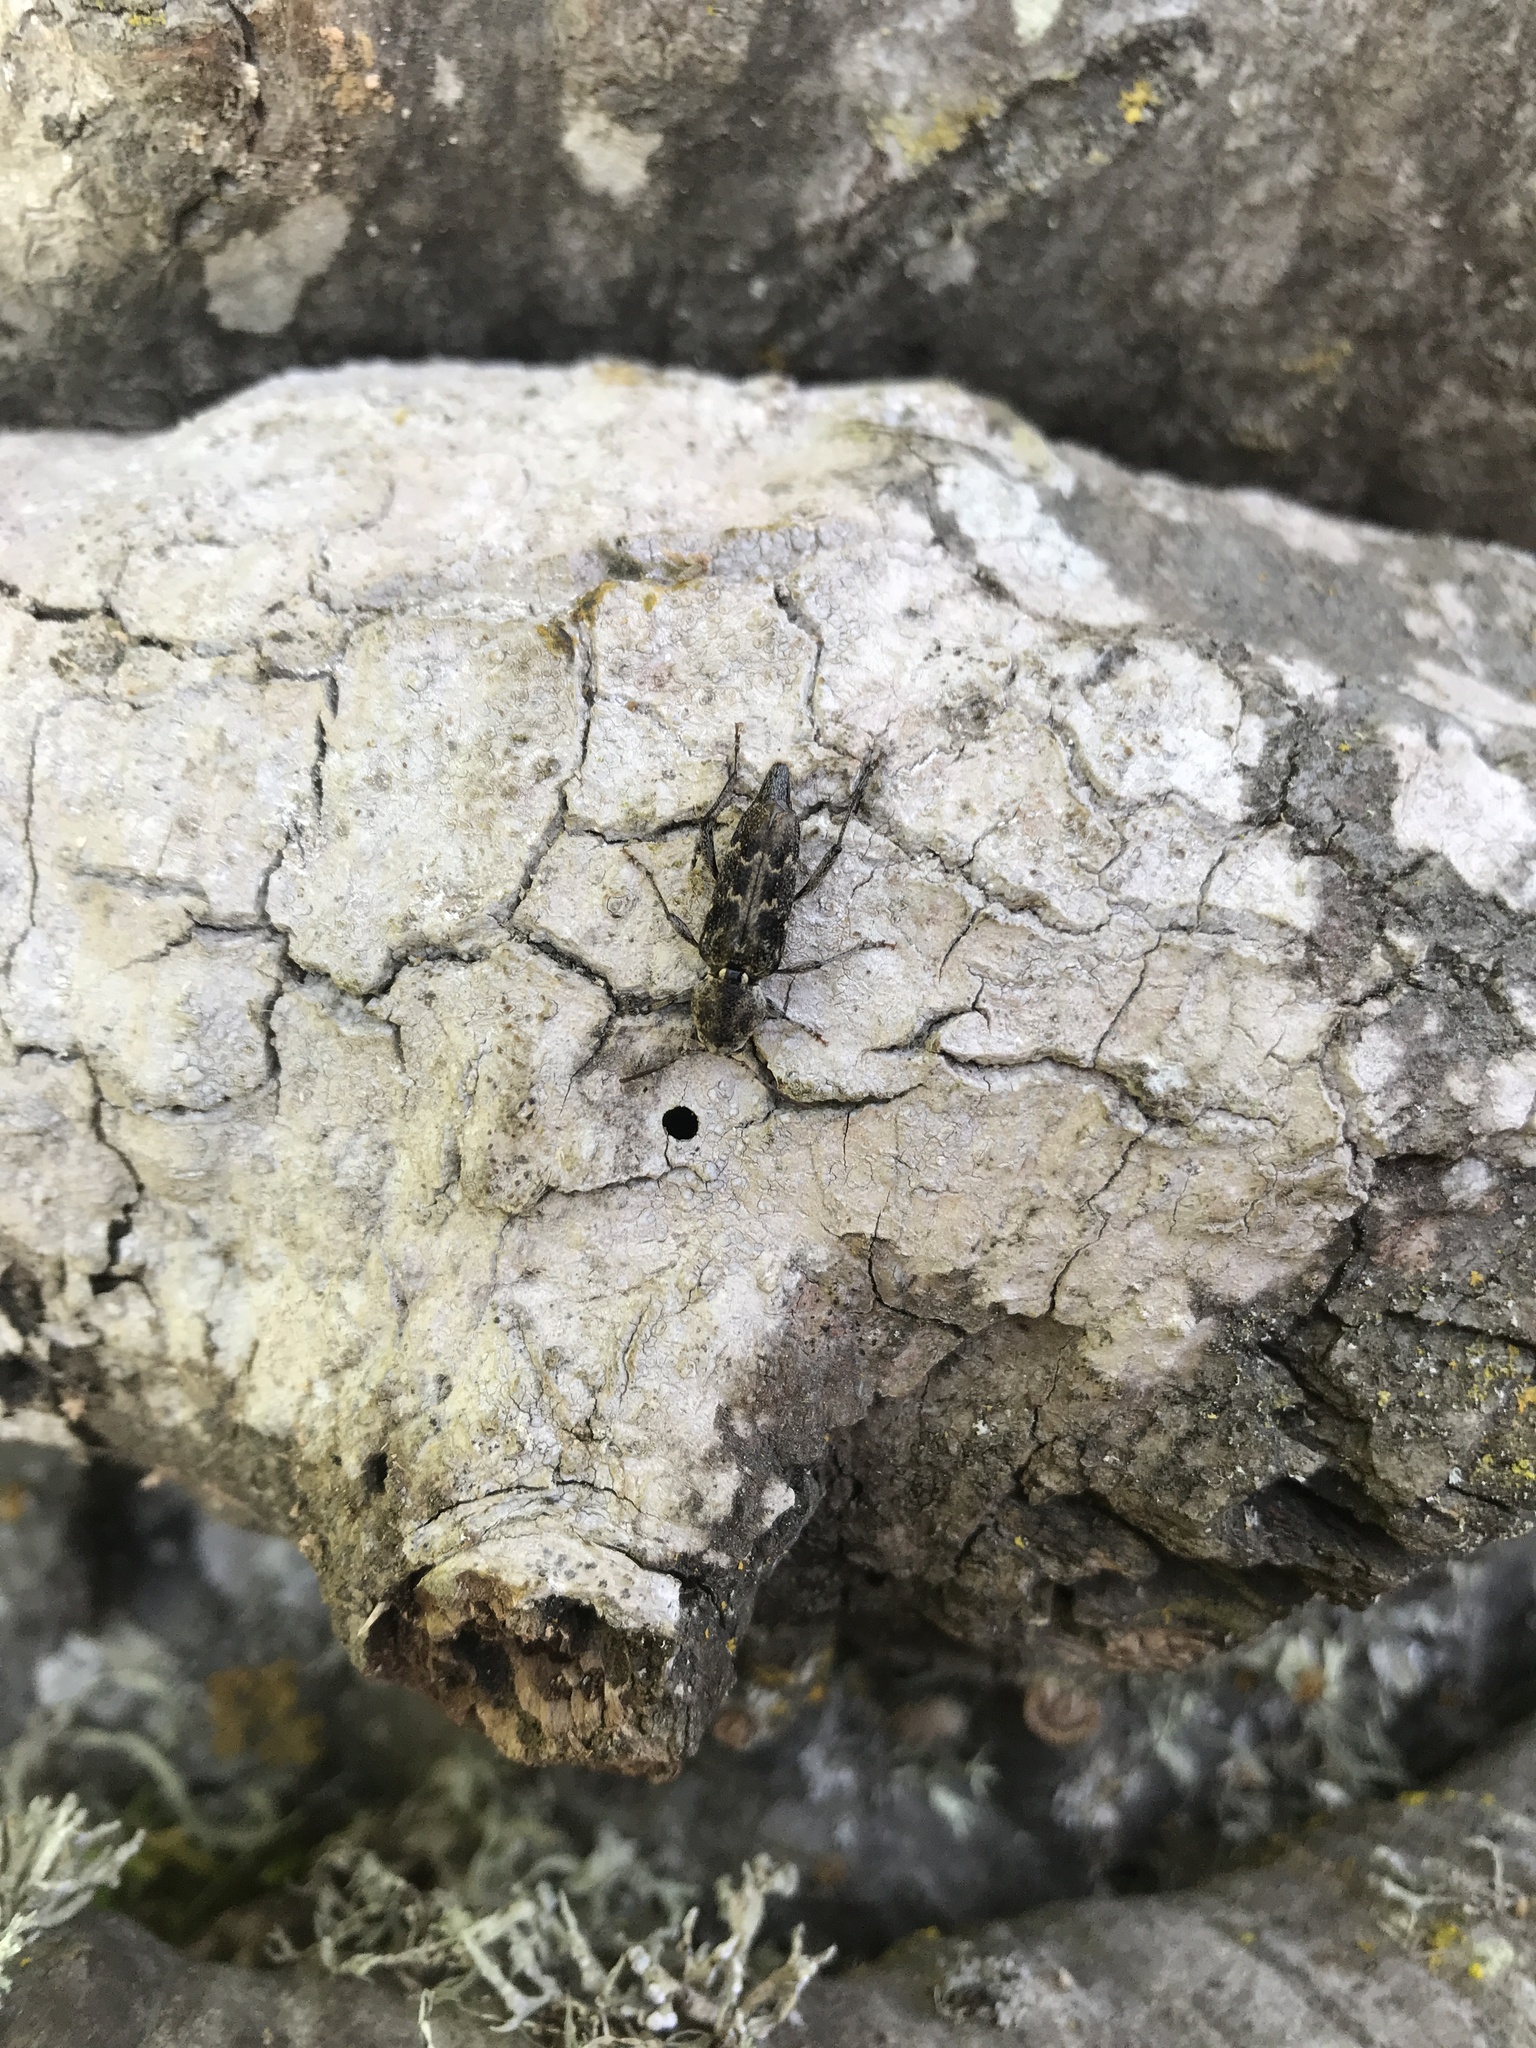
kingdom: Animalia
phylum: Arthropoda
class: Insecta
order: Coleoptera
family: Cerambycidae
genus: Xylotrechus
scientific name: Xylotrechus nauticus
